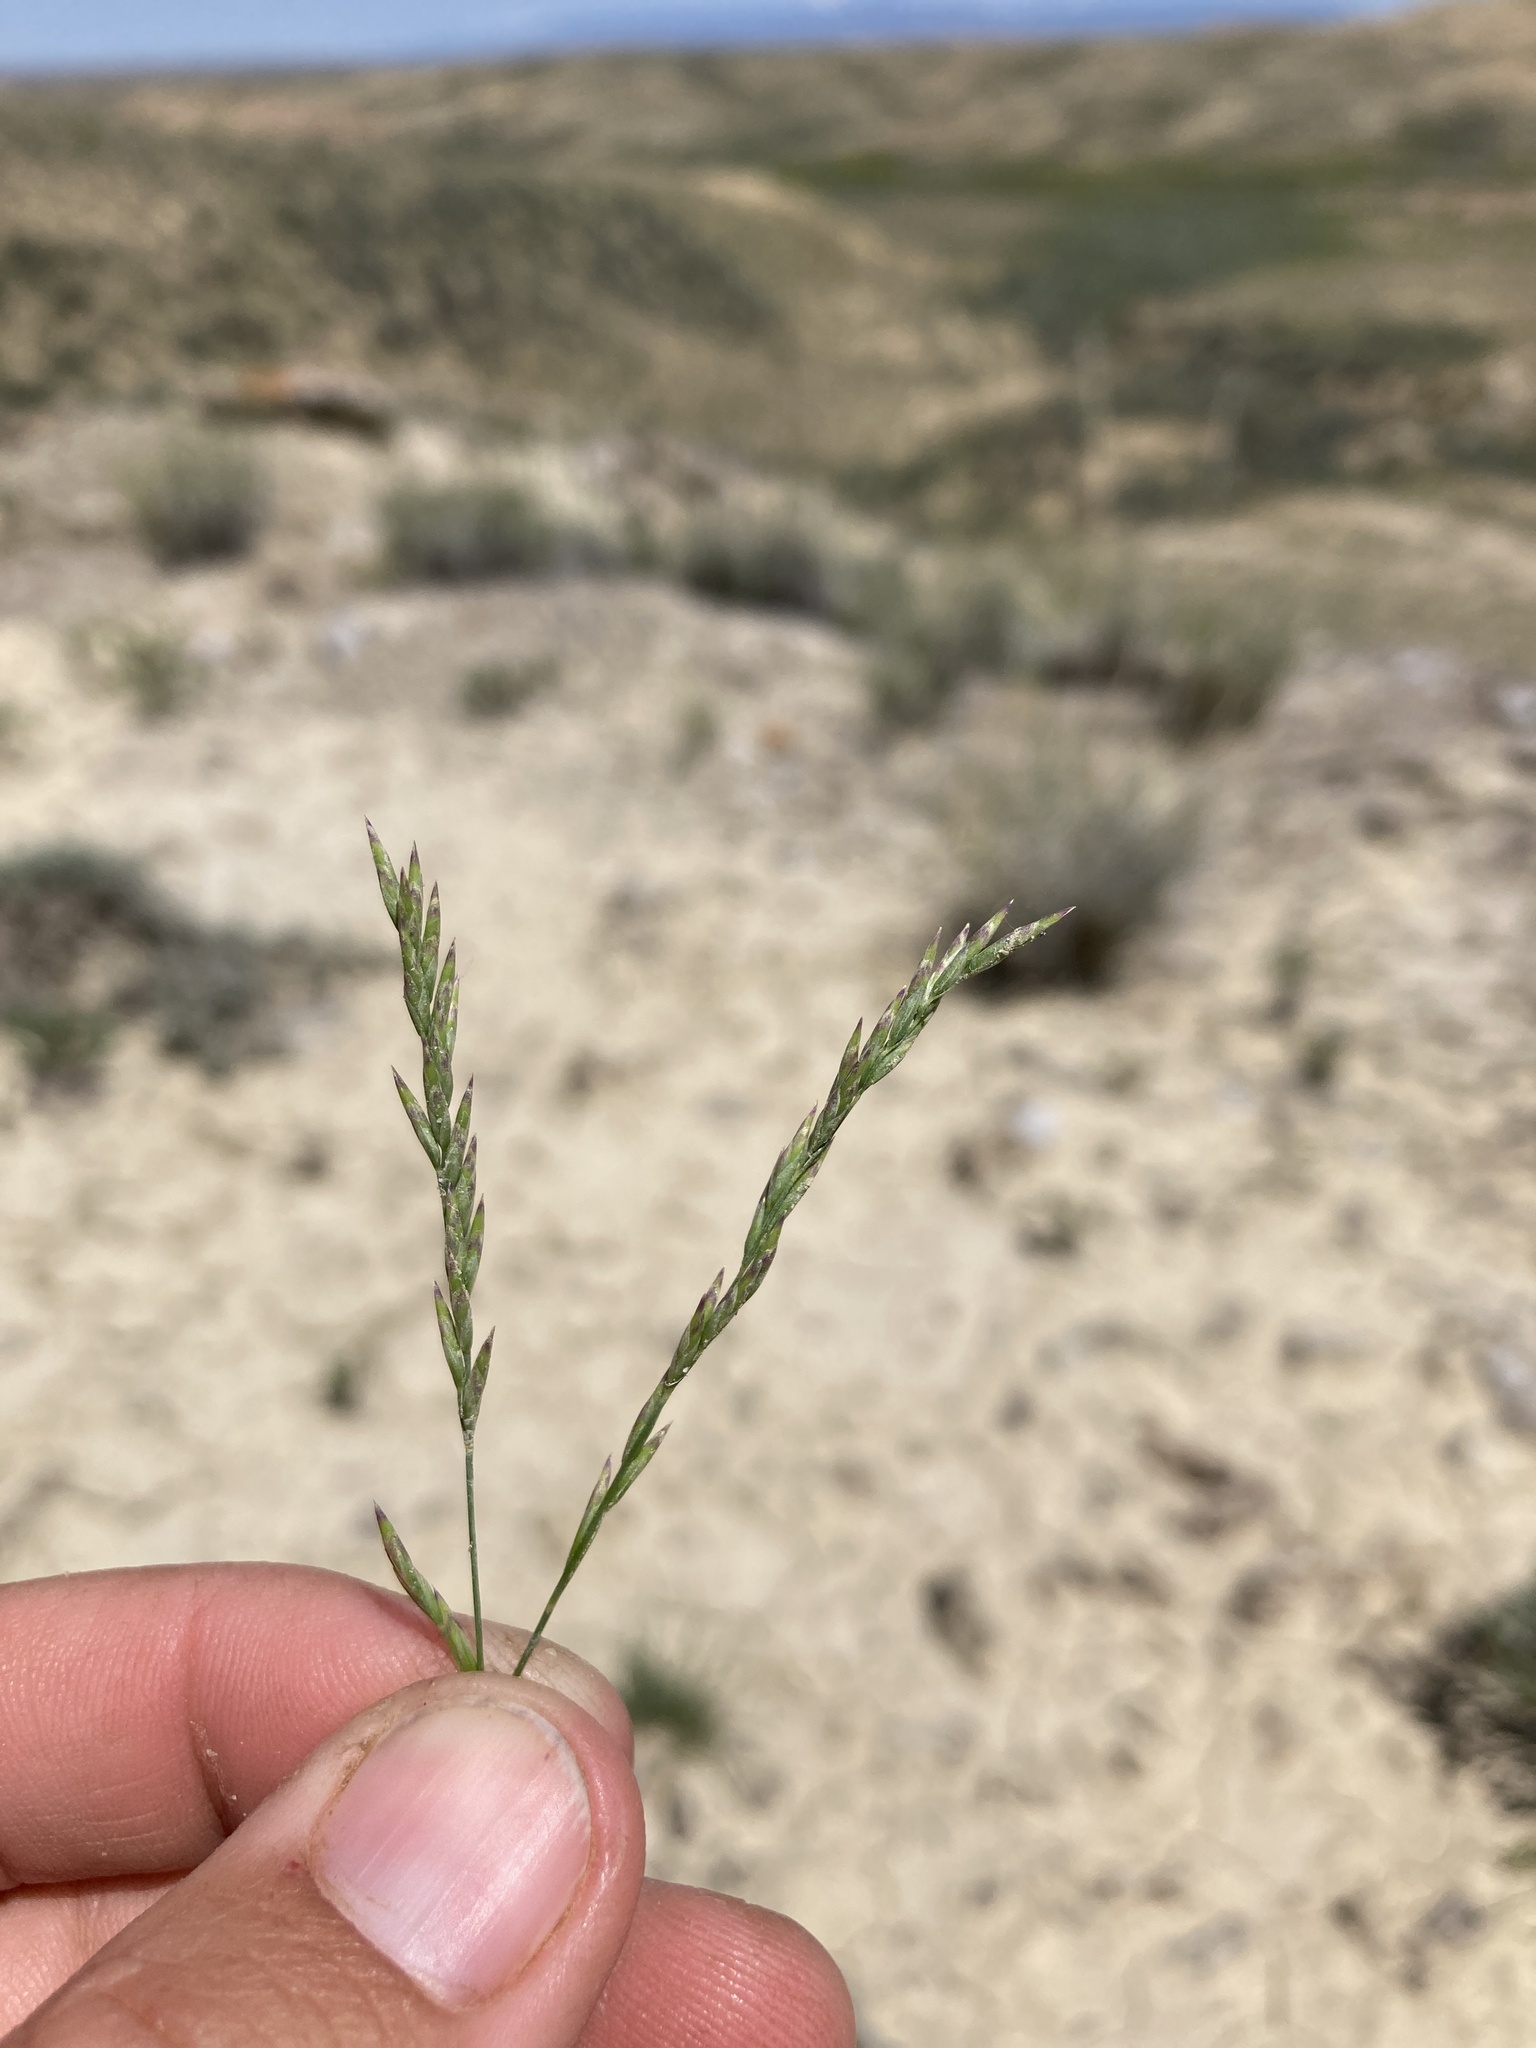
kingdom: Plantae
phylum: Tracheophyta
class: Liliopsida
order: Poales
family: Poaceae
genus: Poa
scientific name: Poa secunda
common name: Sandberg bluegrass
